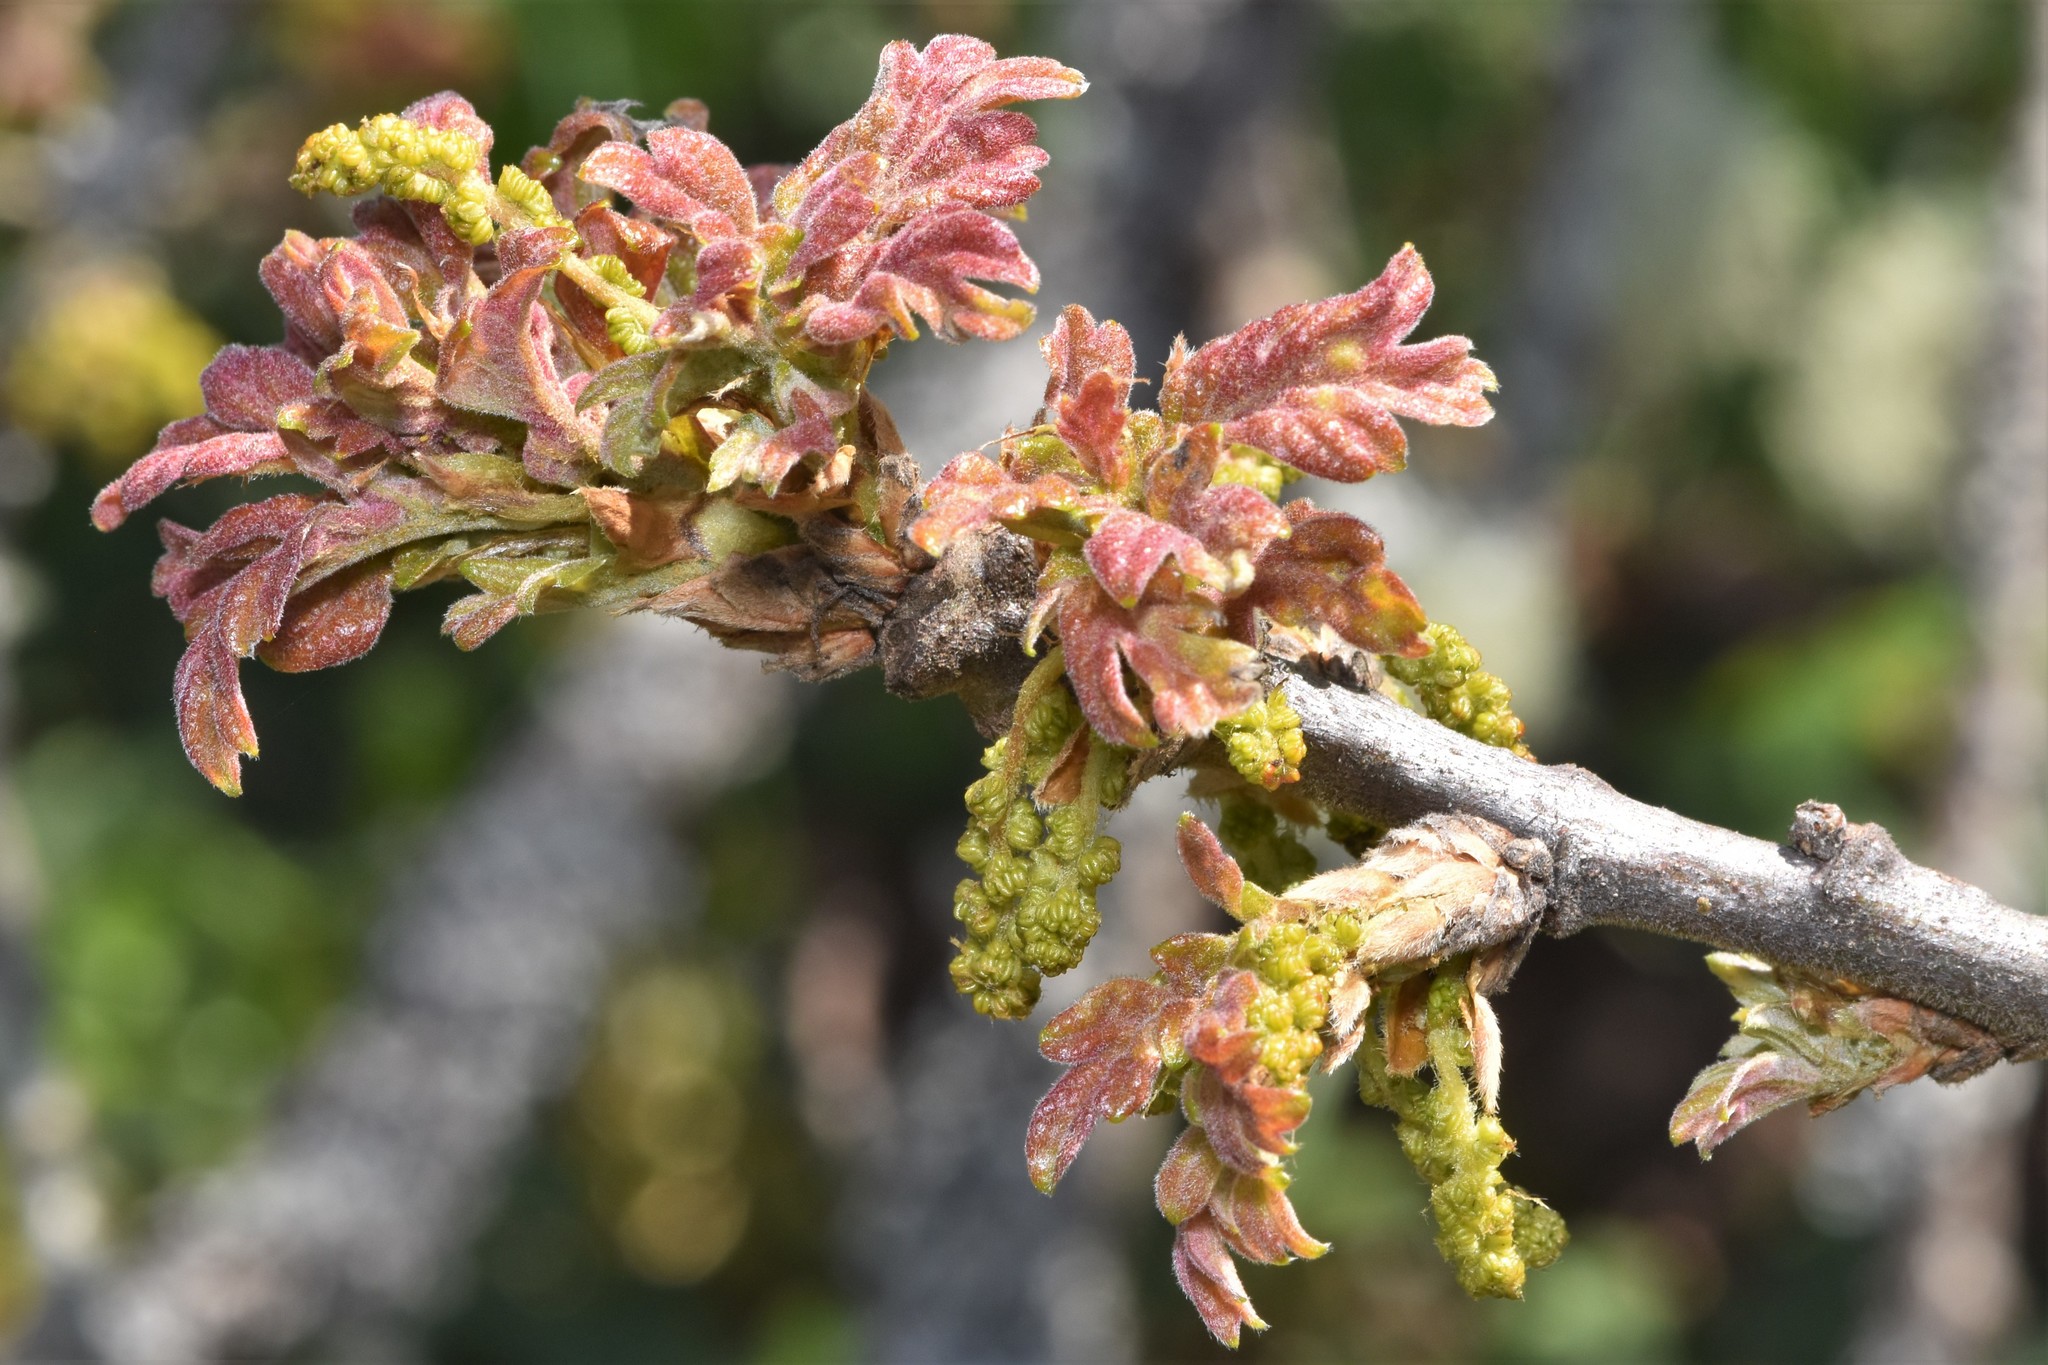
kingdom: Plantae
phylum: Tracheophyta
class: Magnoliopsida
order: Fagales
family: Fagaceae
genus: Quercus
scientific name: Quercus garryana
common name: Garry oak
